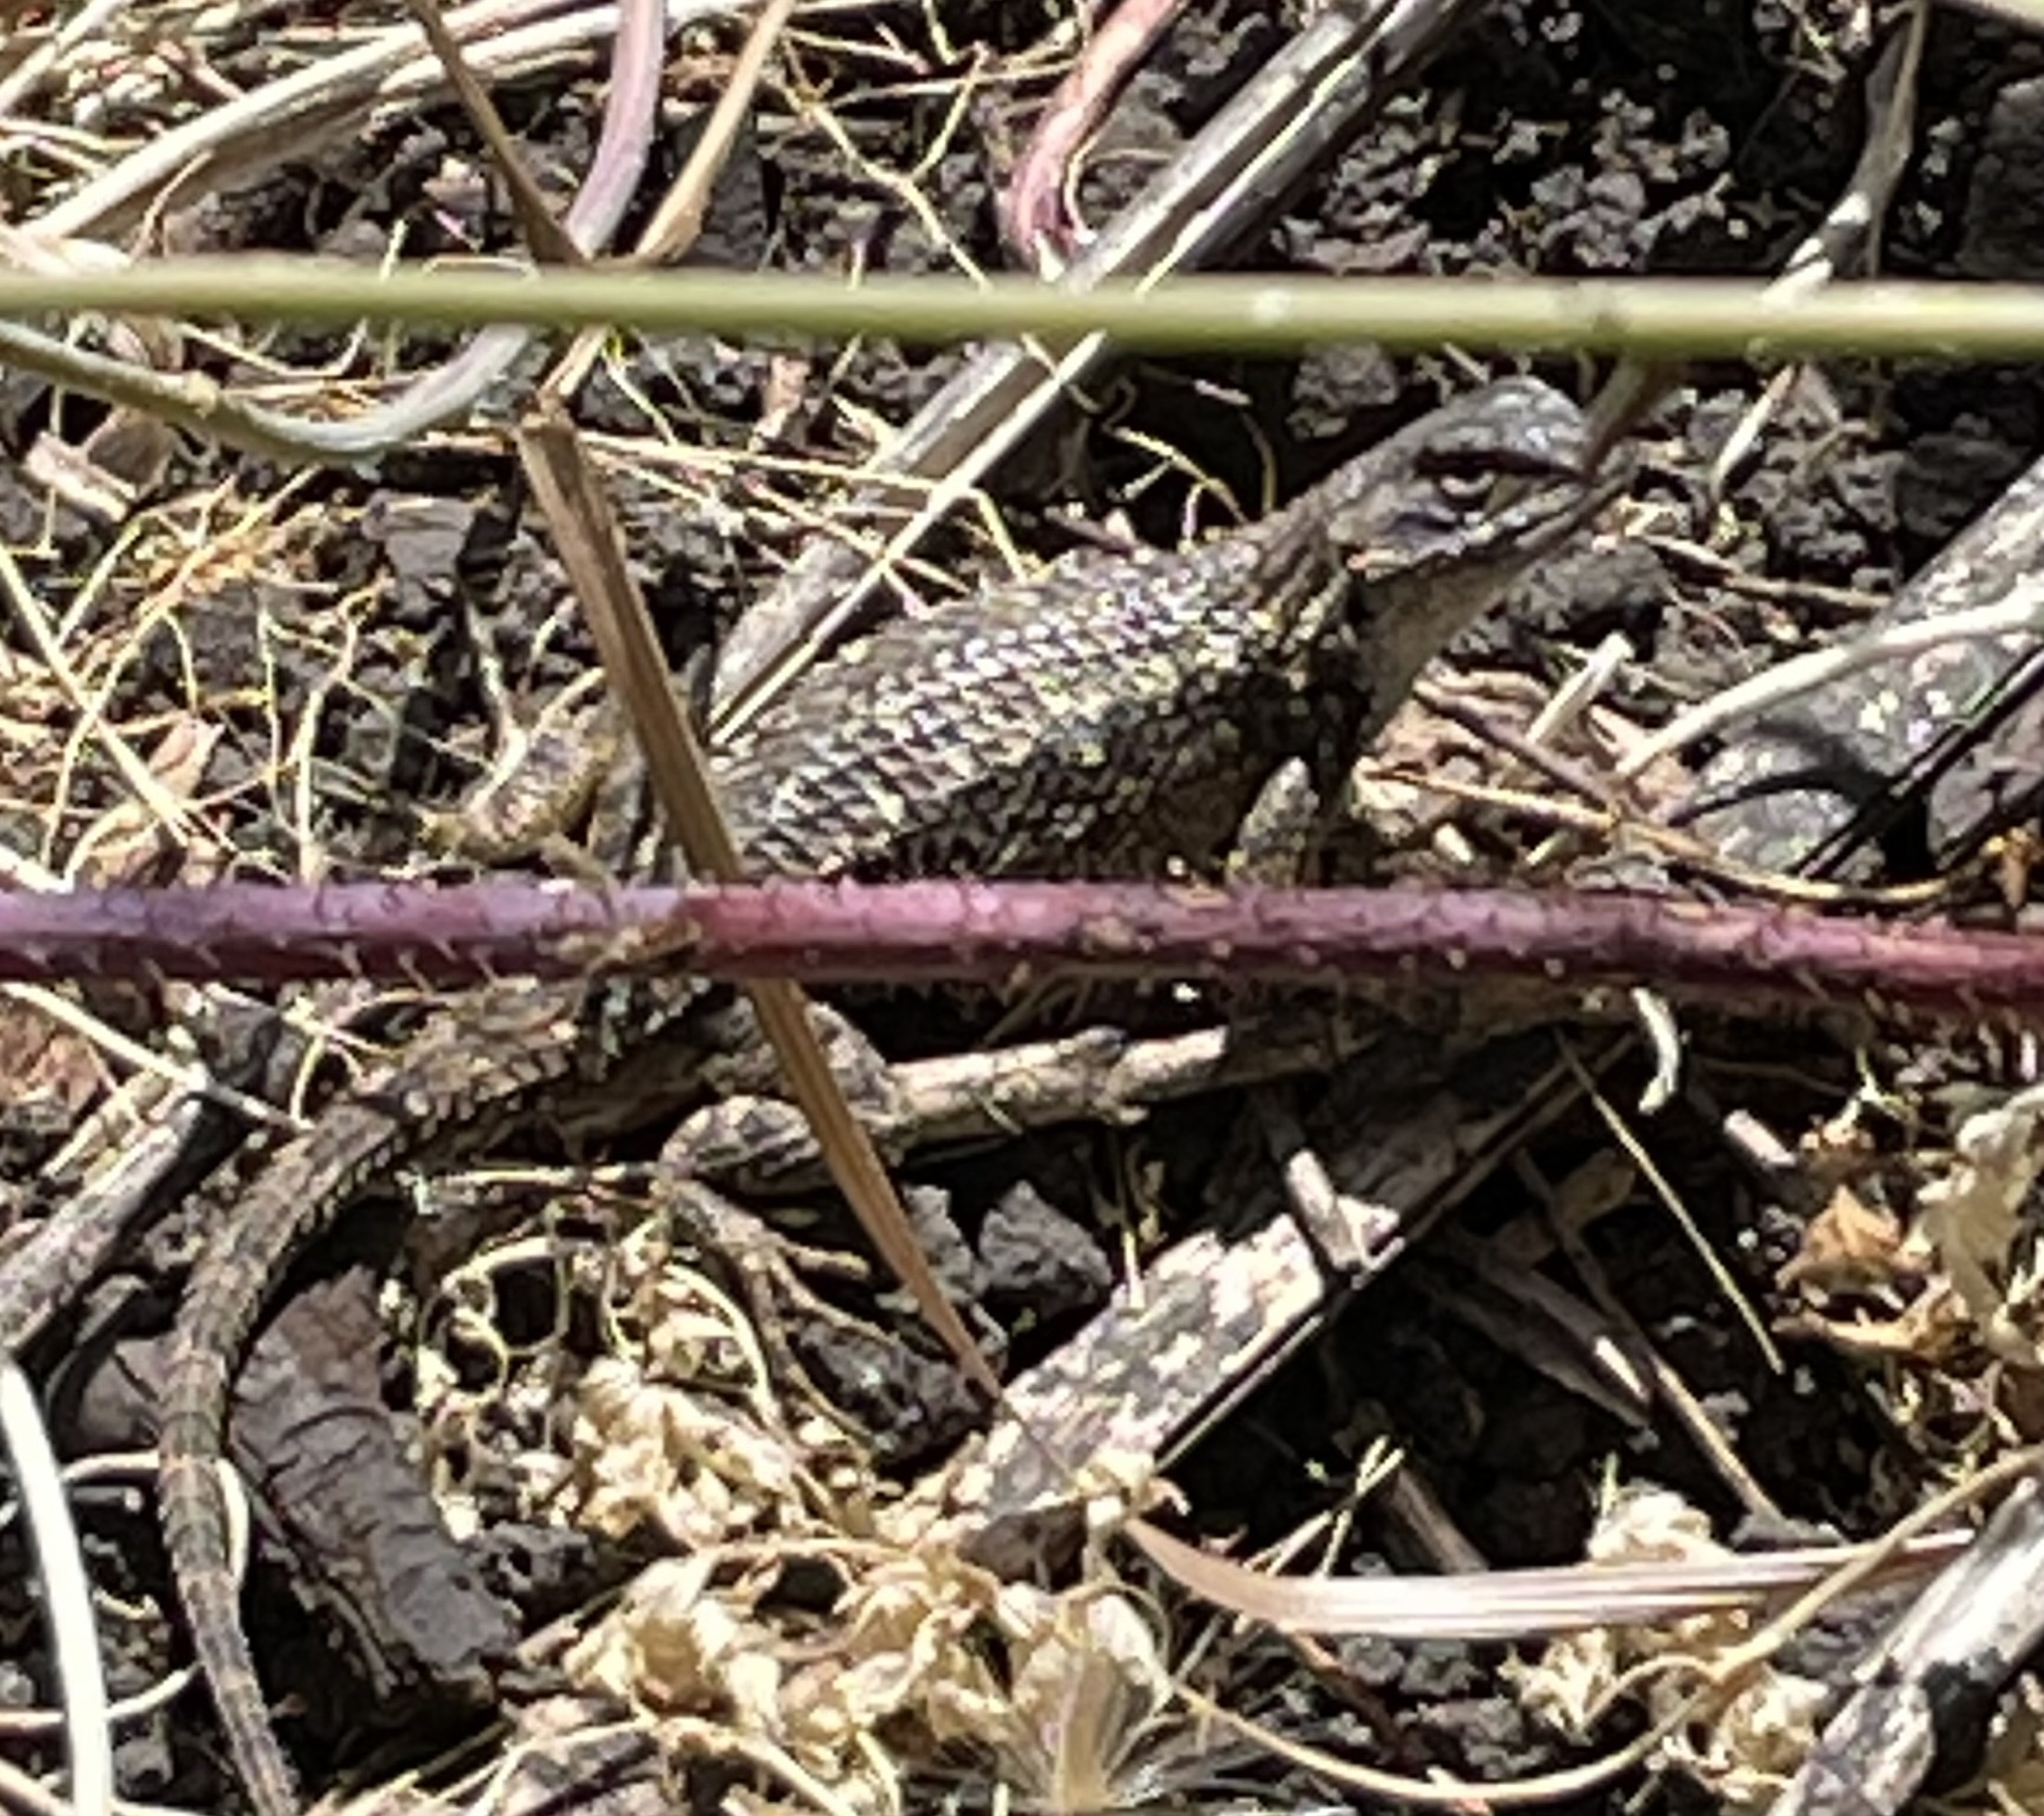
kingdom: Animalia
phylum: Chordata
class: Squamata
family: Phrynosomatidae
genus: Sceloporus
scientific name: Sceloporus occidentalis
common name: Western fence lizard
